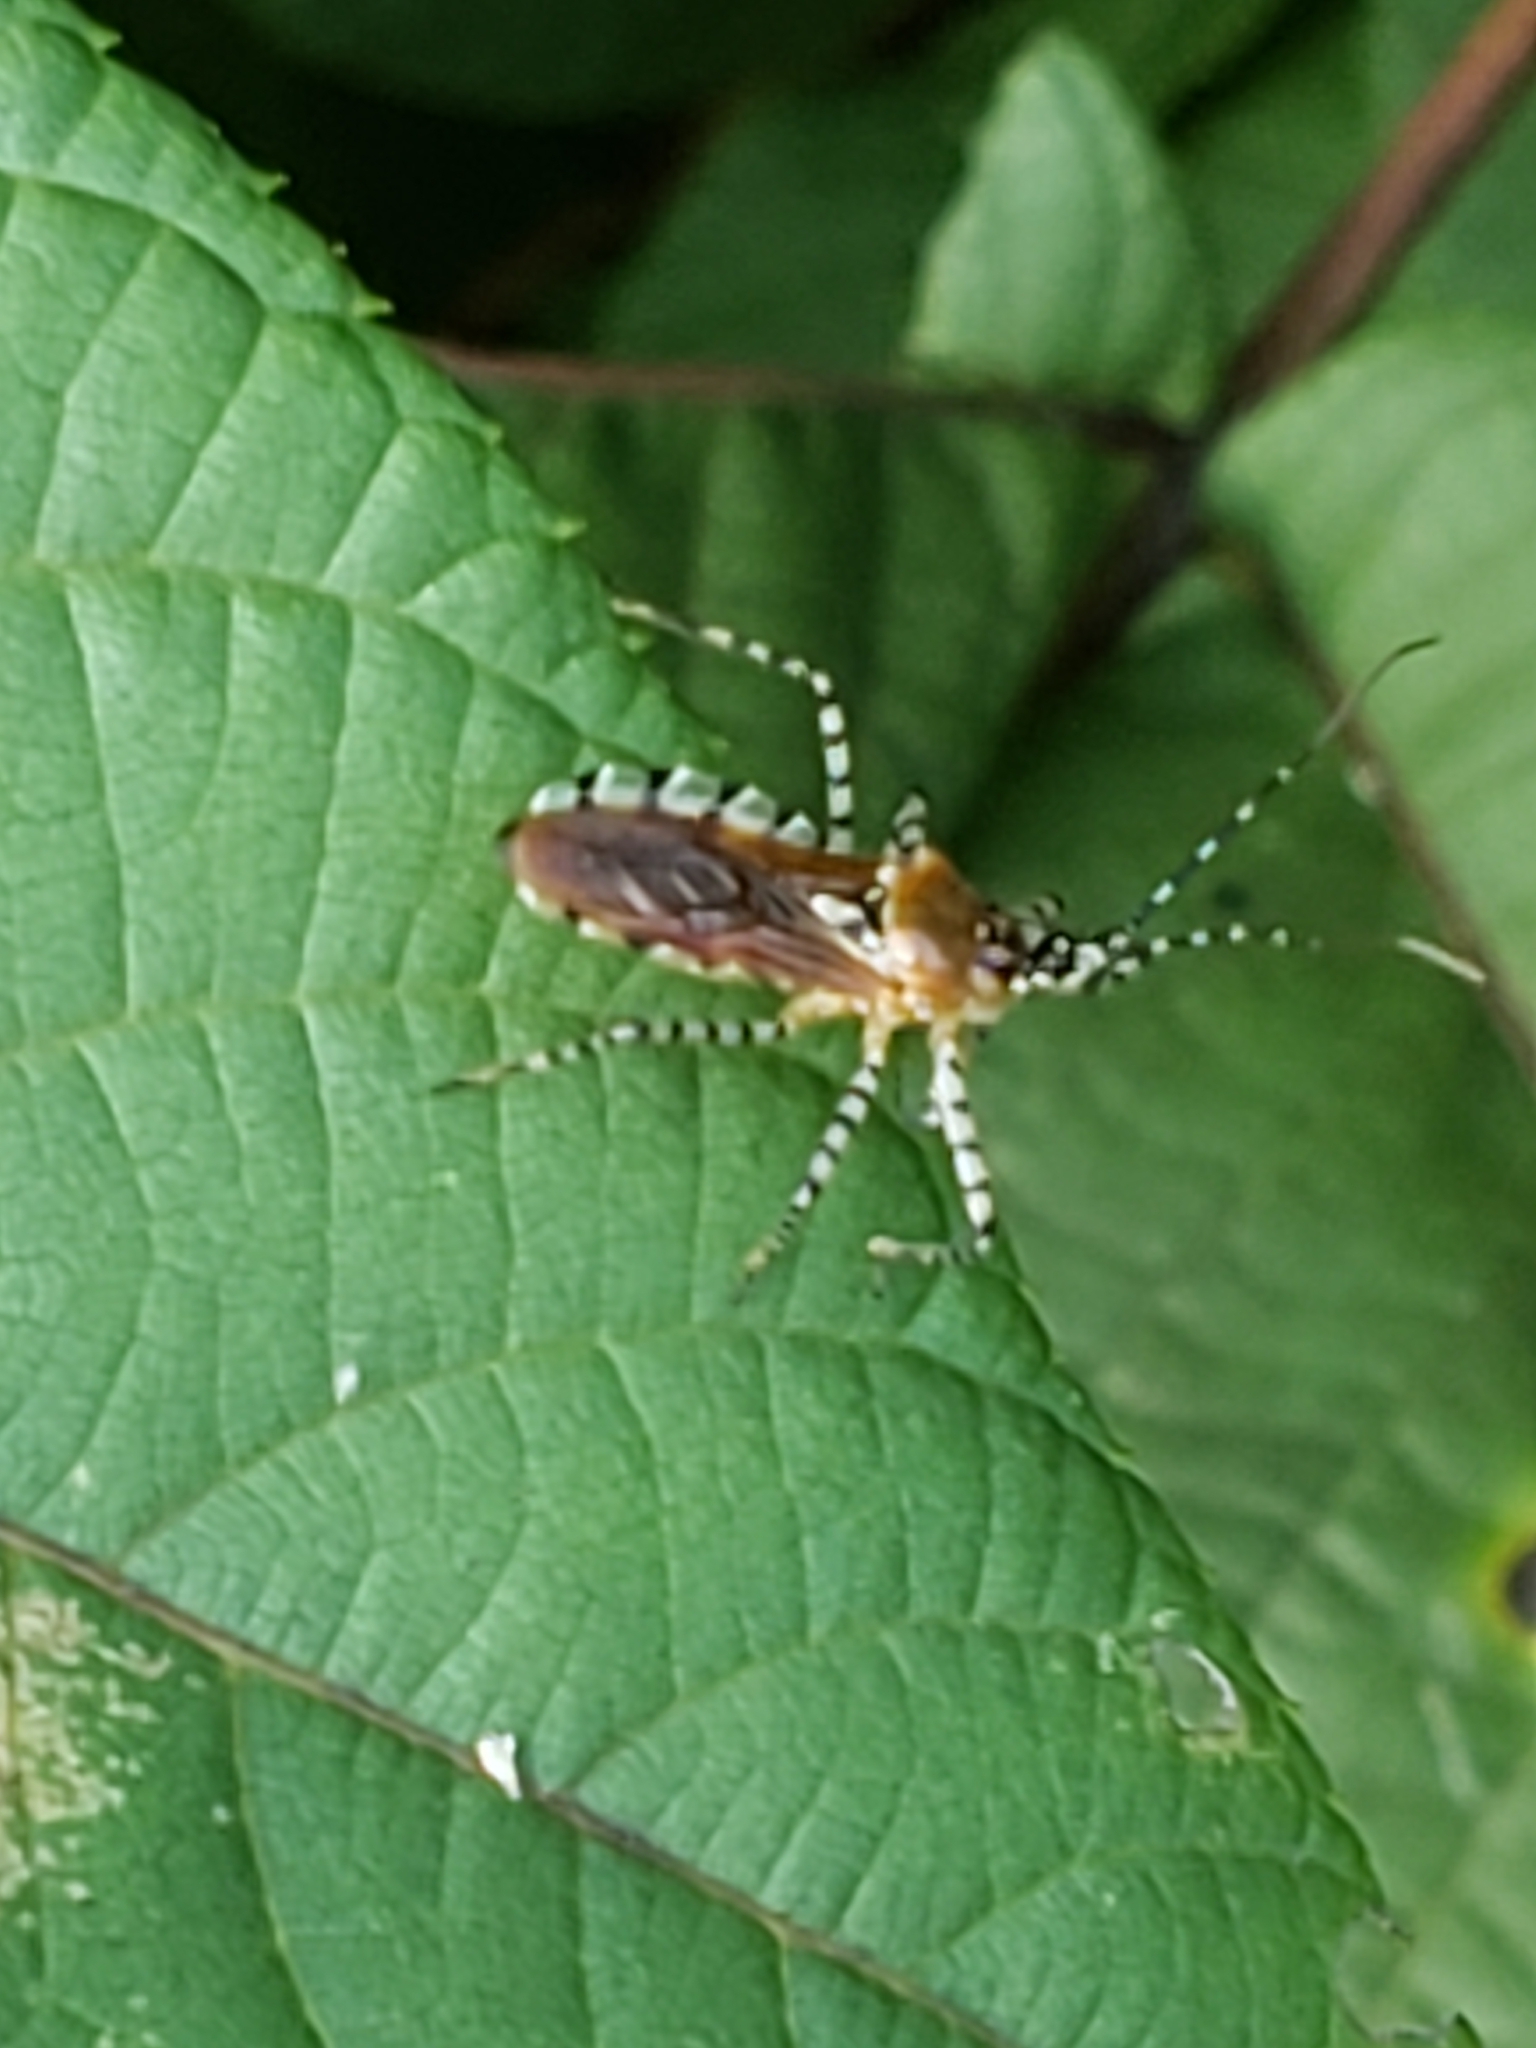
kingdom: Animalia
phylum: Arthropoda
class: Insecta
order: Hemiptera
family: Reduviidae
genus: Pselliopus
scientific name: Pselliopus cinctus
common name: Ringed assassin bug
